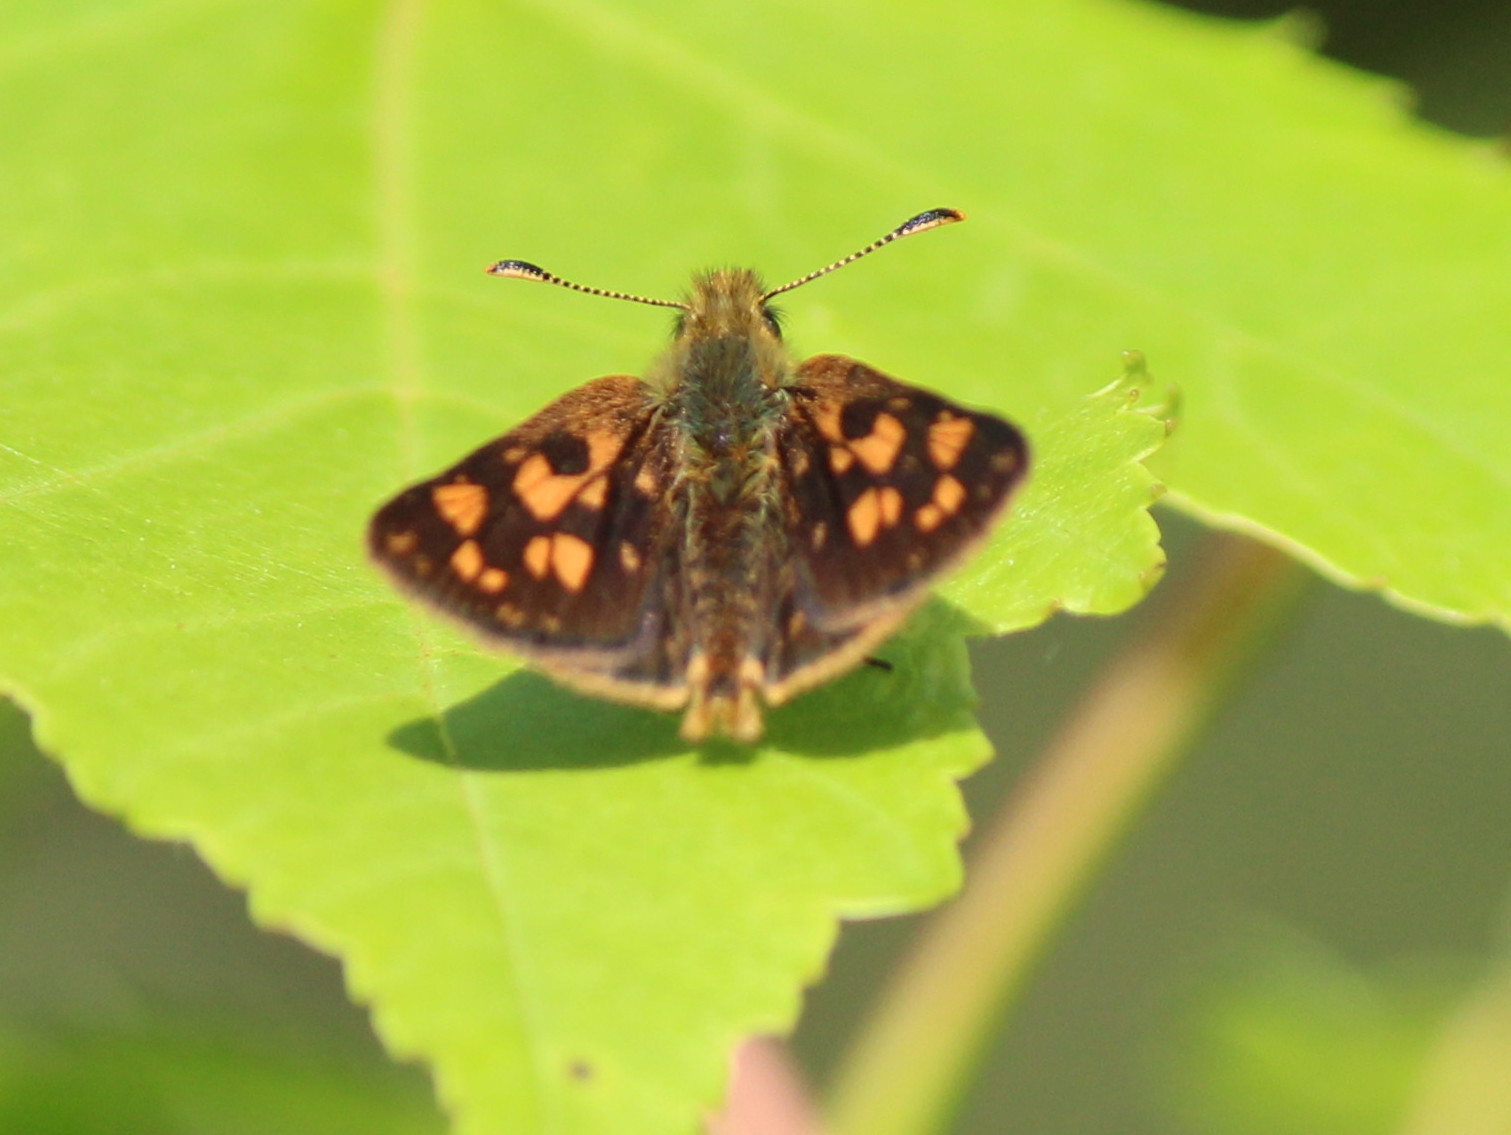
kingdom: Animalia
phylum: Arthropoda
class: Insecta
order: Lepidoptera
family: Hesperiidae
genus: Carterocephalus
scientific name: Carterocephalus mandan
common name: Arctic skipperling
